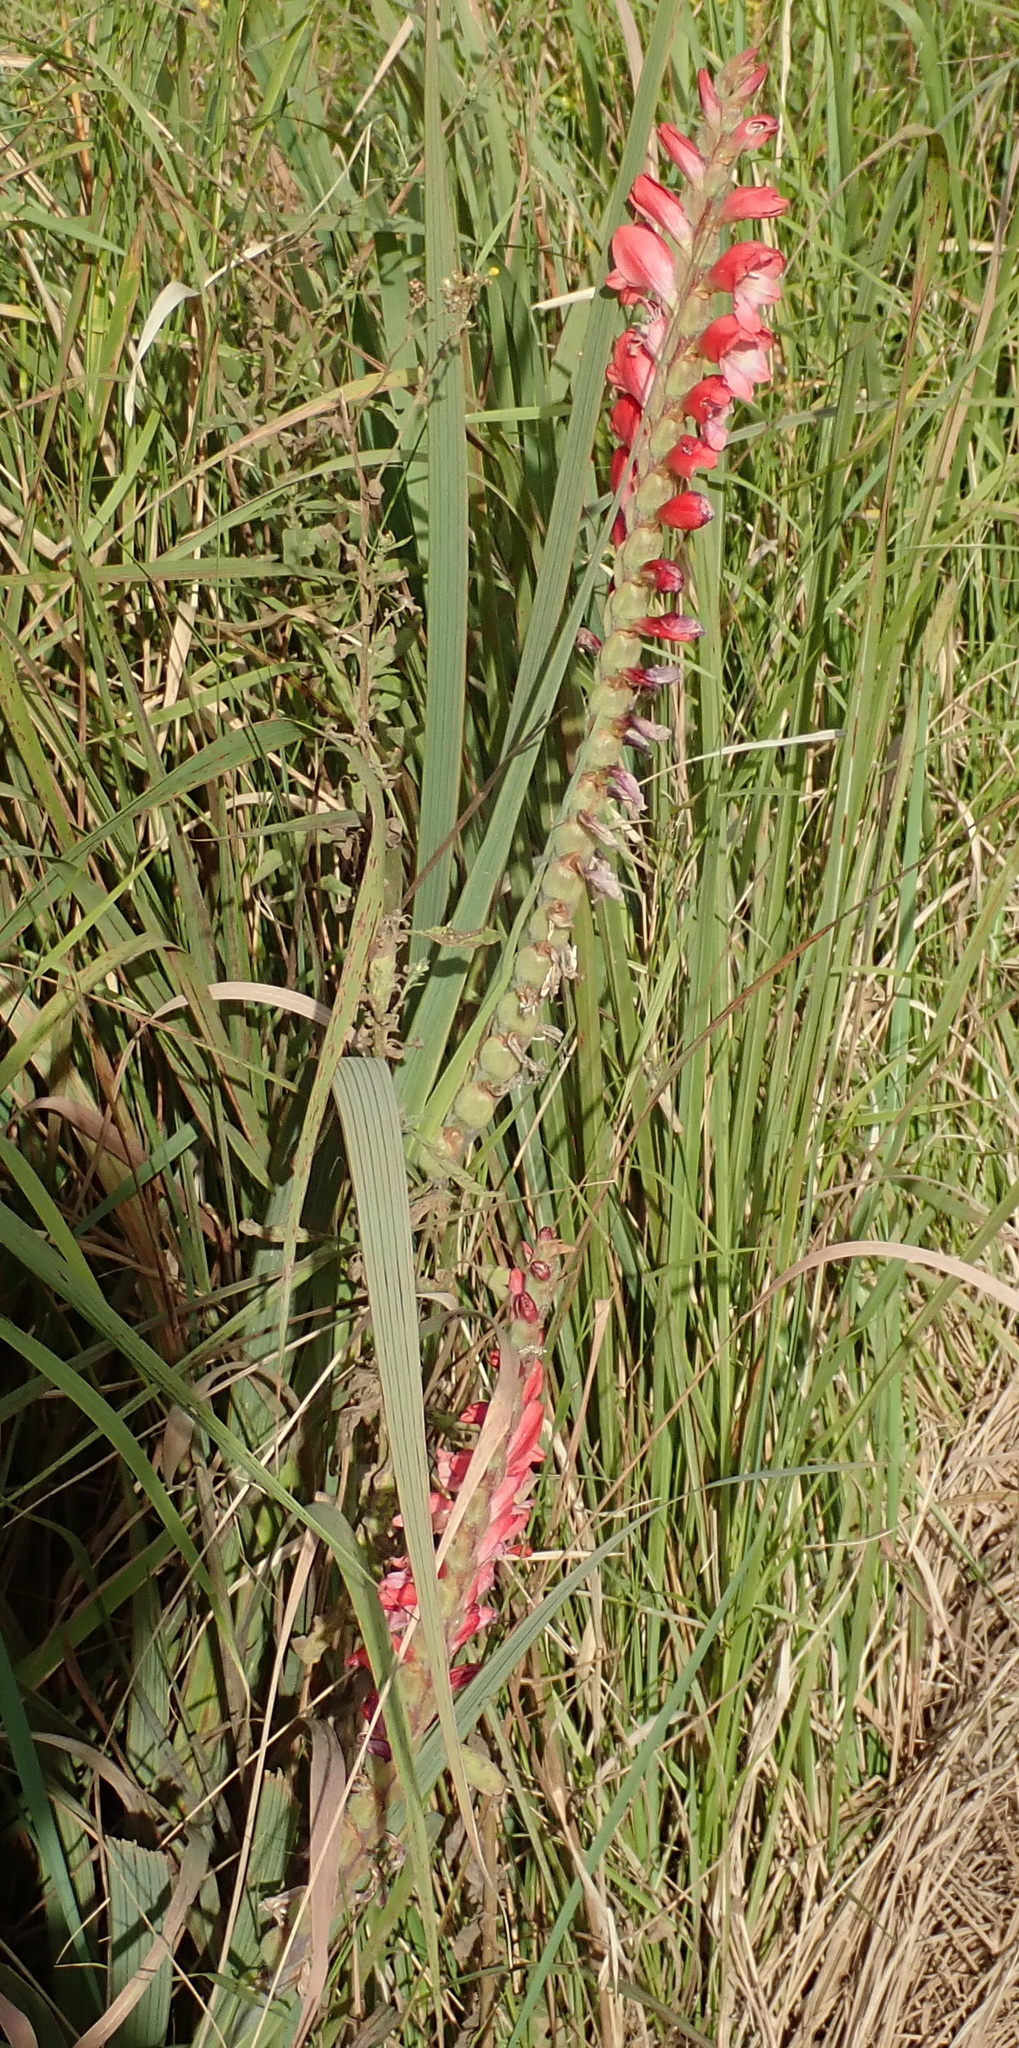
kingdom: Plantae
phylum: Tracheophyta
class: Liliopsida
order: Asparagales
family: Iridaceae
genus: Gladiolus
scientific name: Gladiolus sericeovillosus
